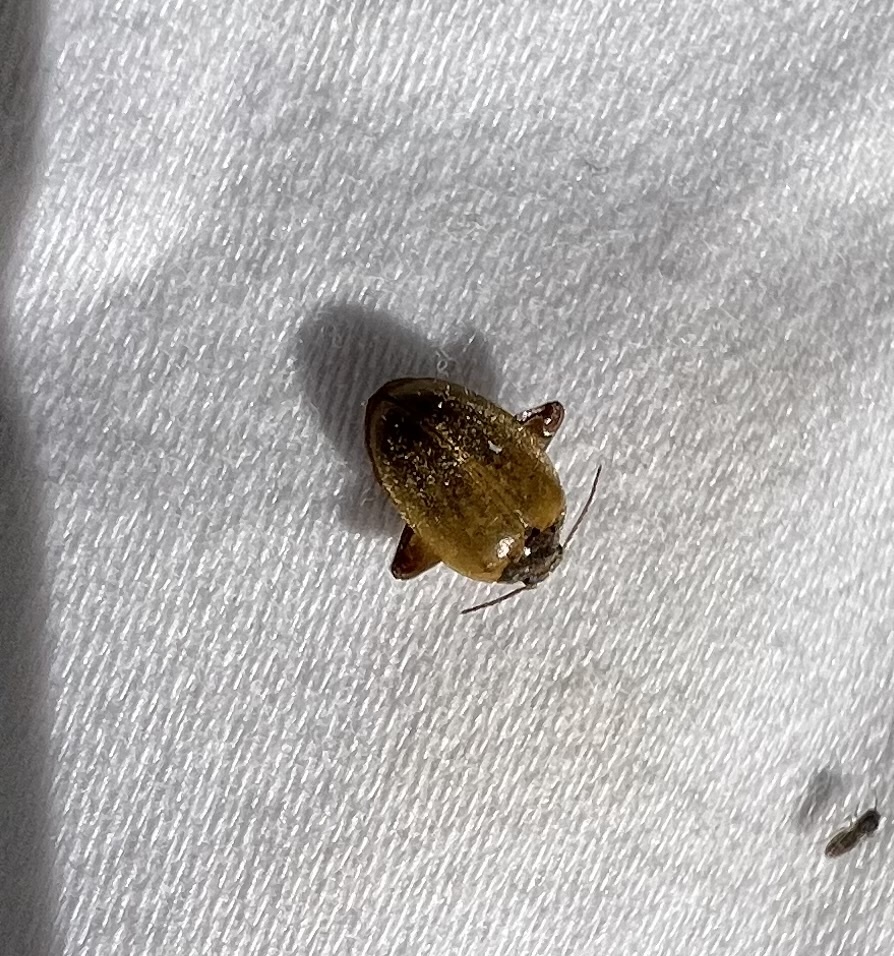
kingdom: Animalia
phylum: Arthropoda
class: Insecta
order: Coleoptera
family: Scirtidae
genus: Ora
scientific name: Ora discoidea
